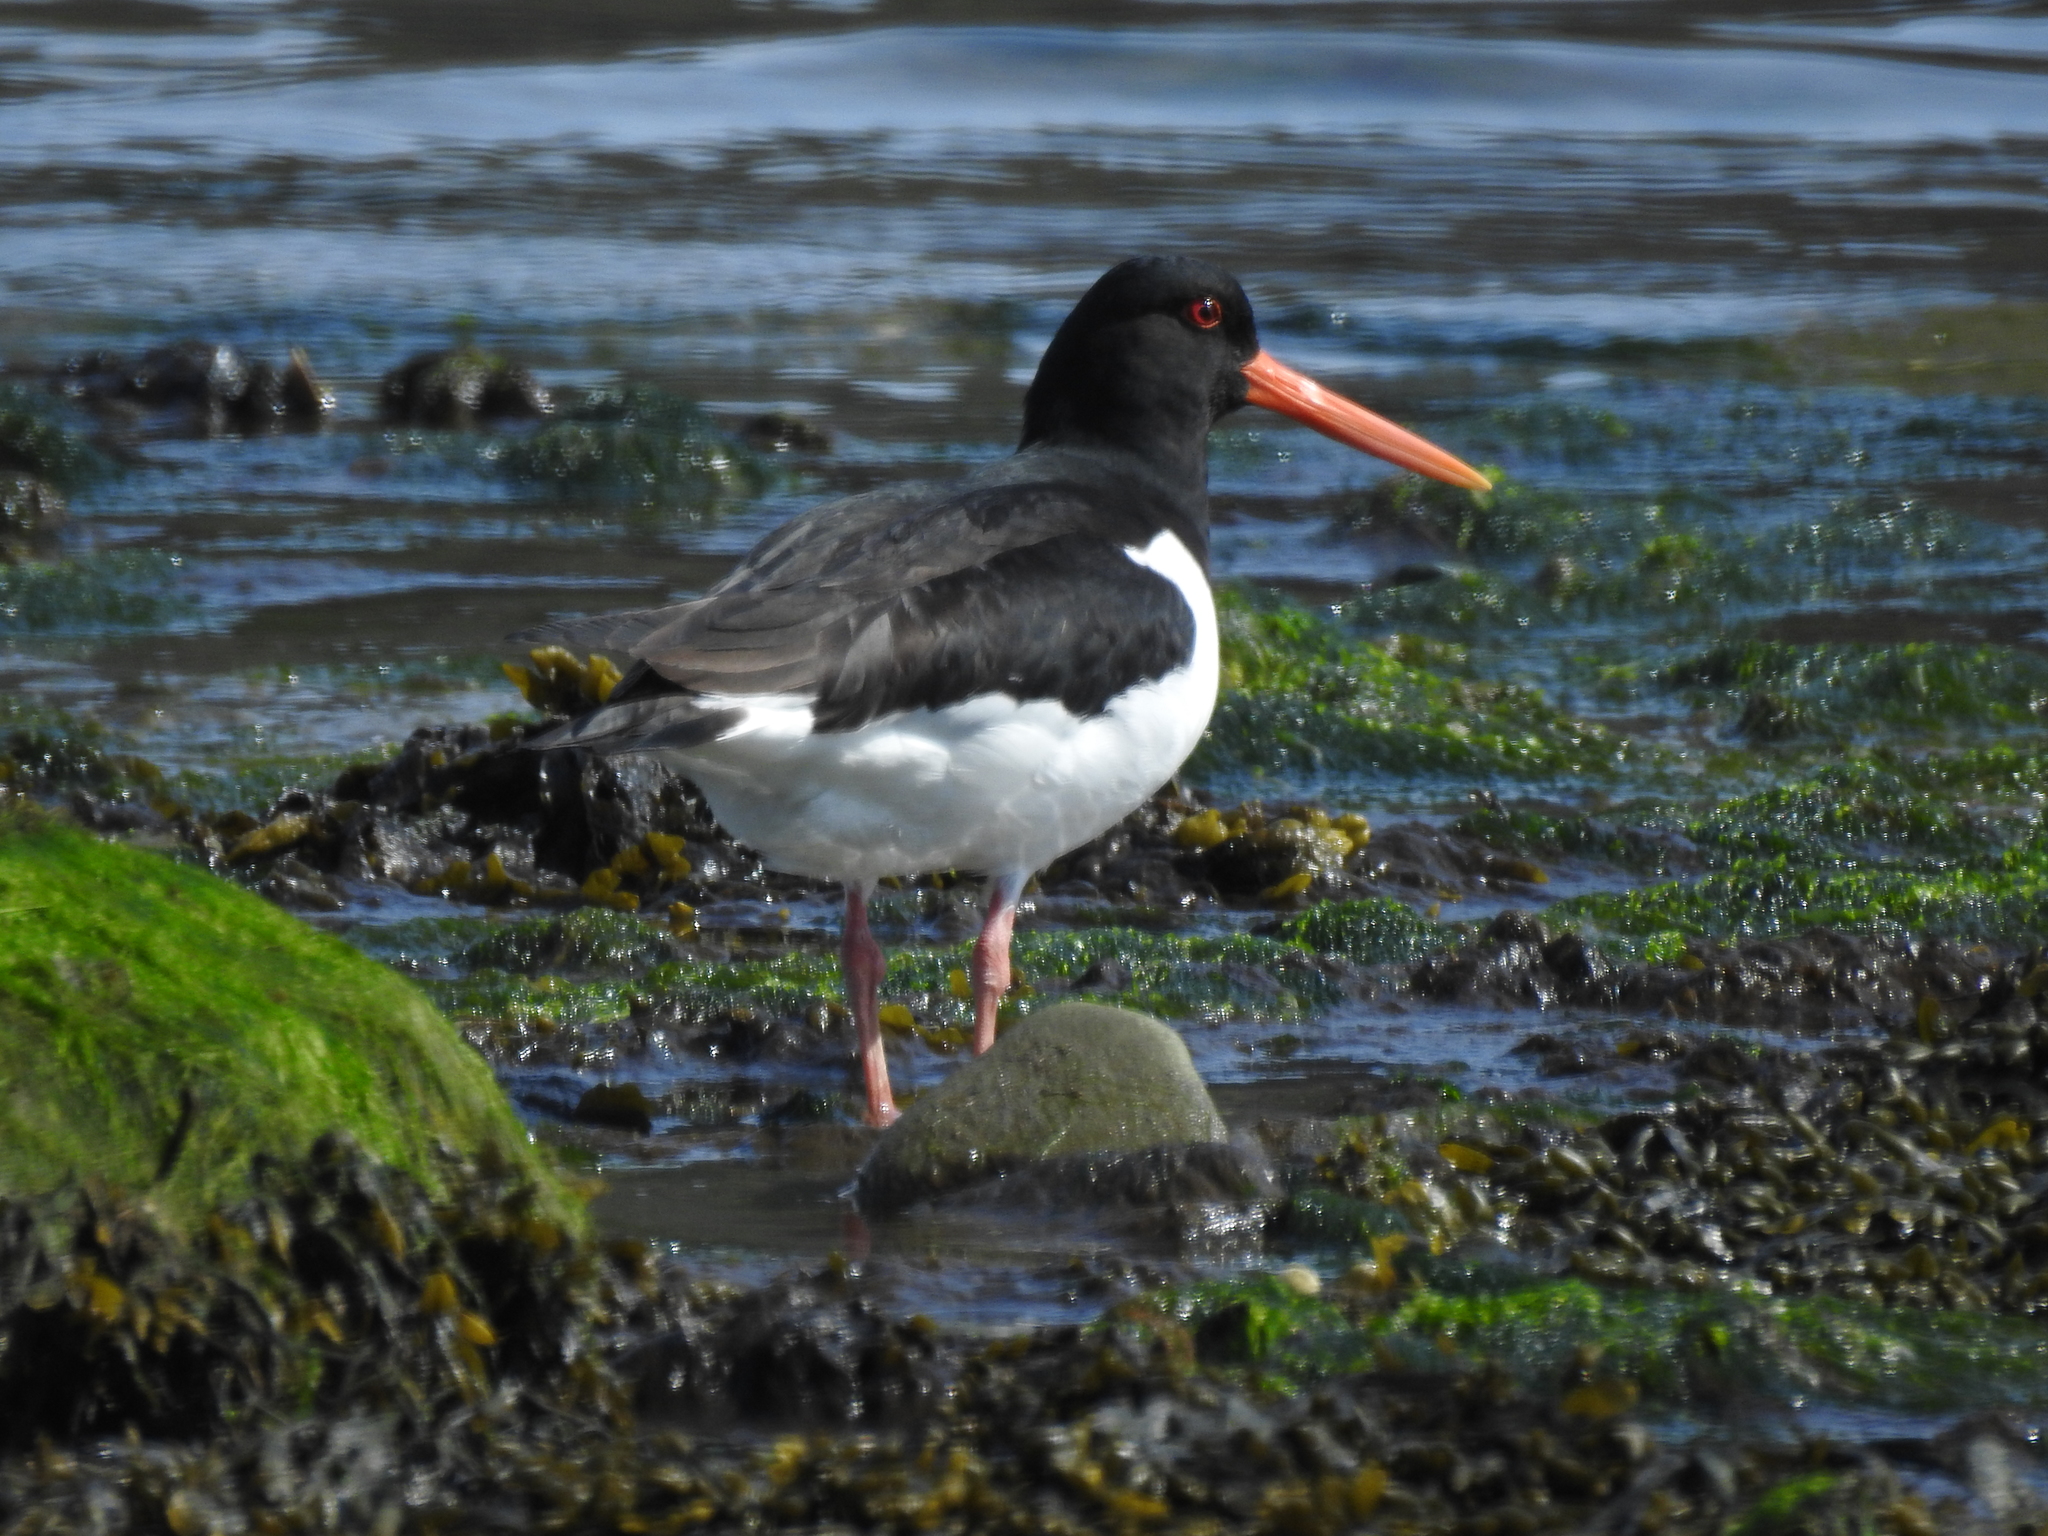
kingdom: Animalia
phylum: Chordata
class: Aves
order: Charadriiformes
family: Haematopodidae
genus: Haematopus
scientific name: Haematopus ostralegus
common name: Eurasian oystercatcher
